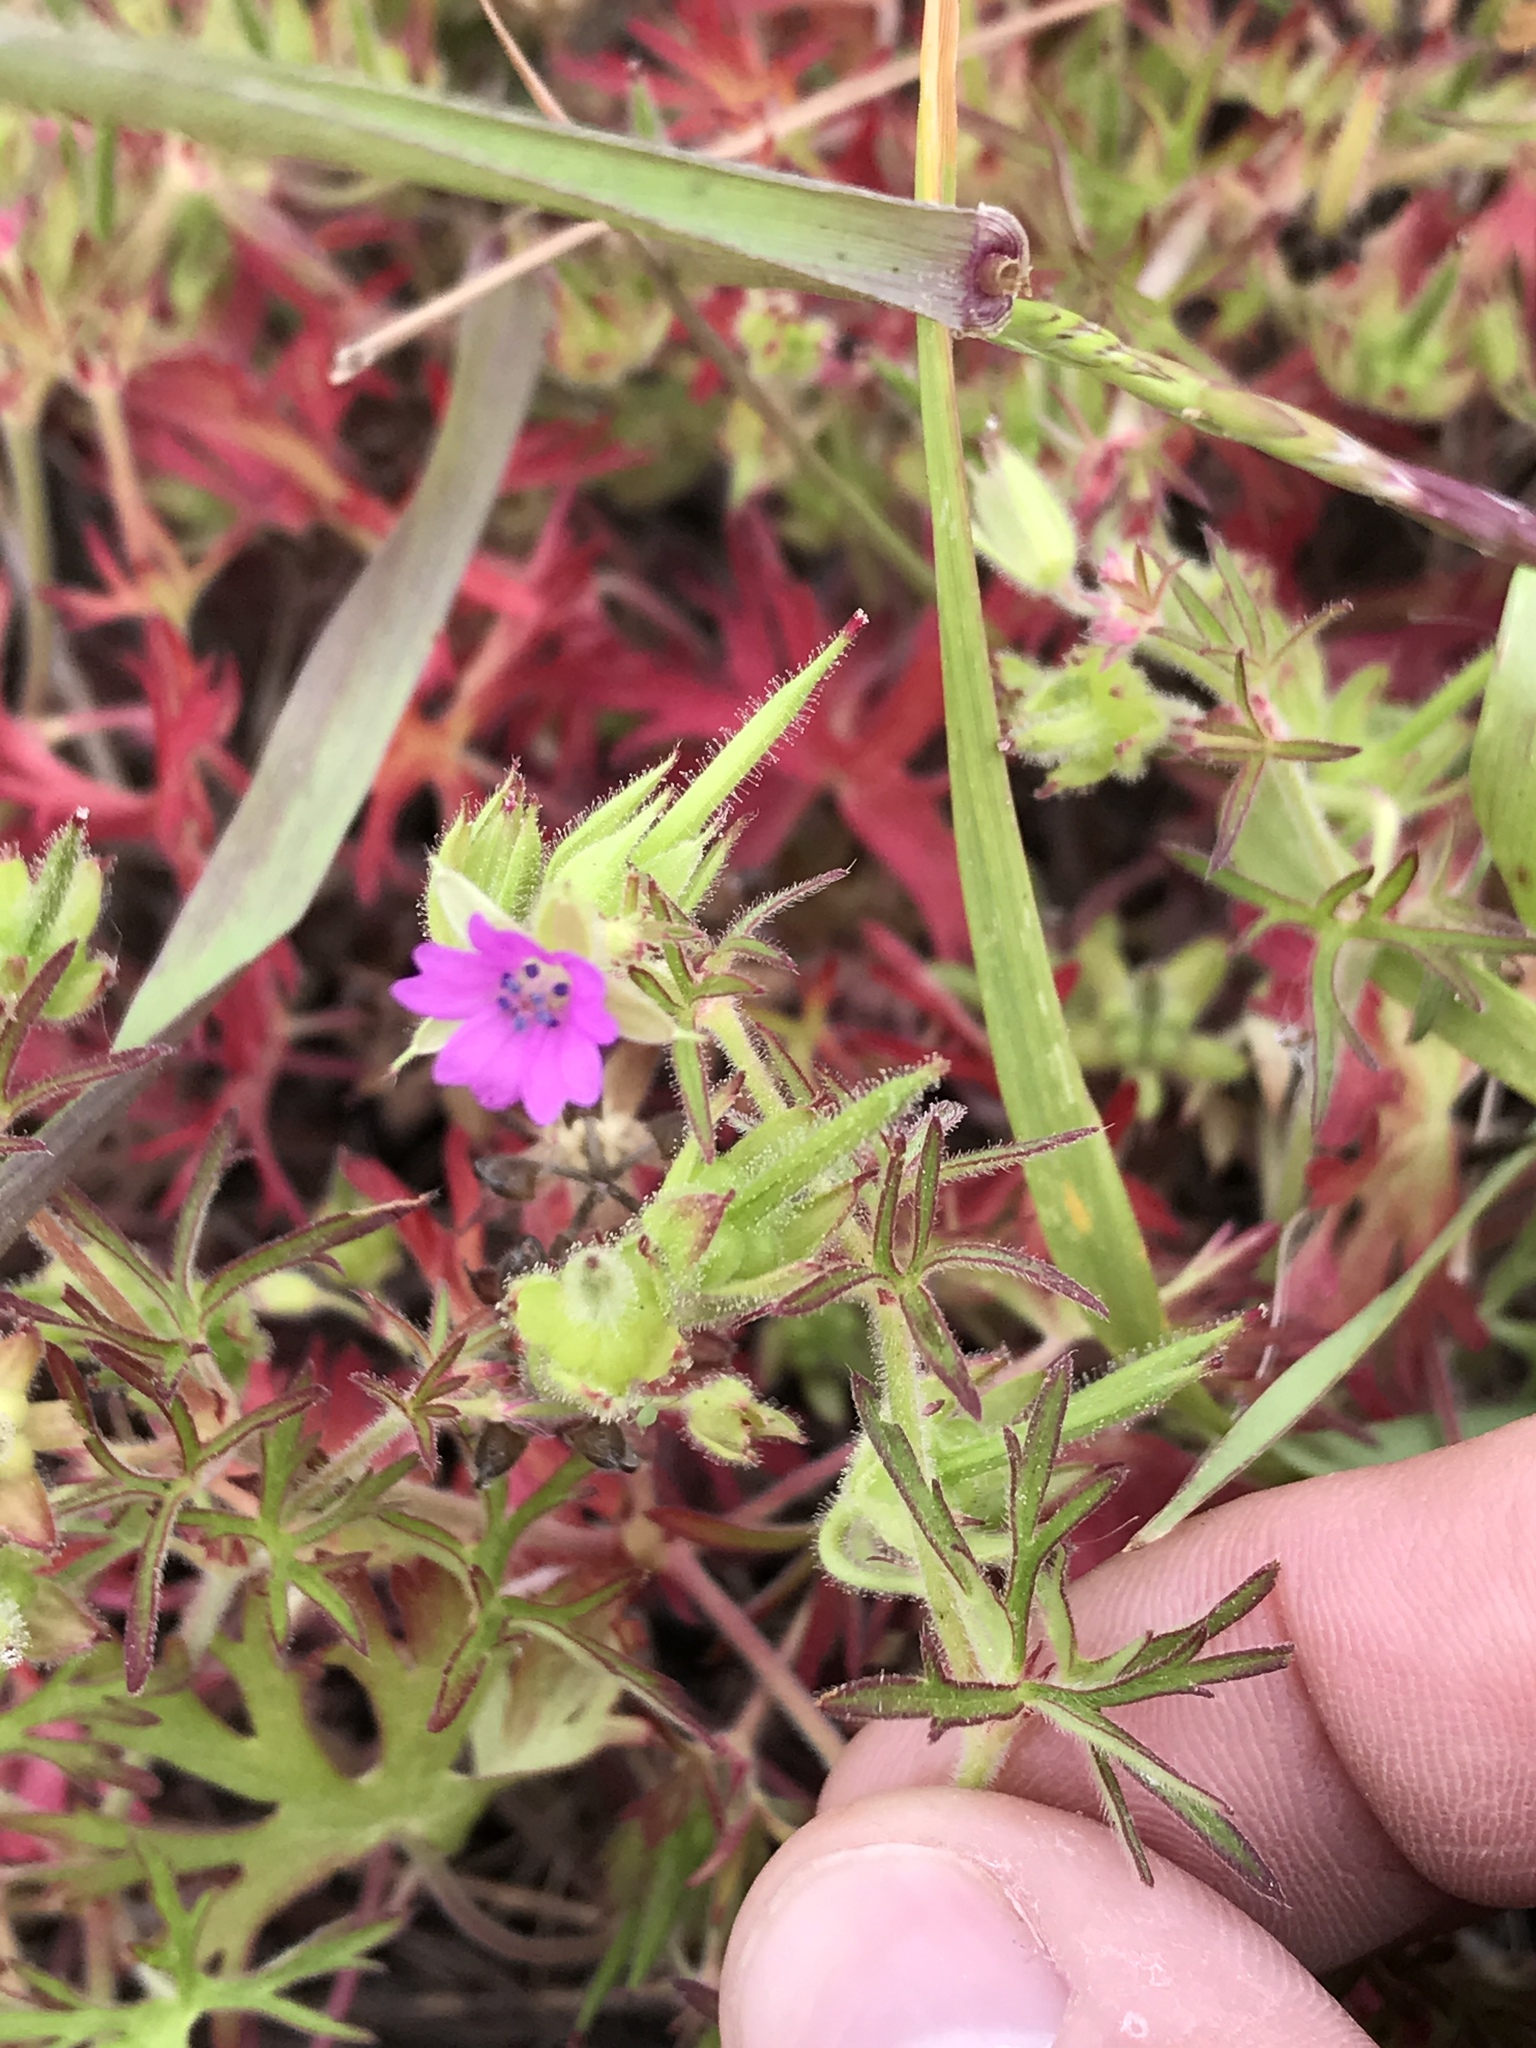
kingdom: Plantae
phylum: Tracheophyta
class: Magnoliopsida
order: Geraniales
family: Geraniaceae
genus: Geranium
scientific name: Geranium dissectum
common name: Cut-leaved crane's-bill
